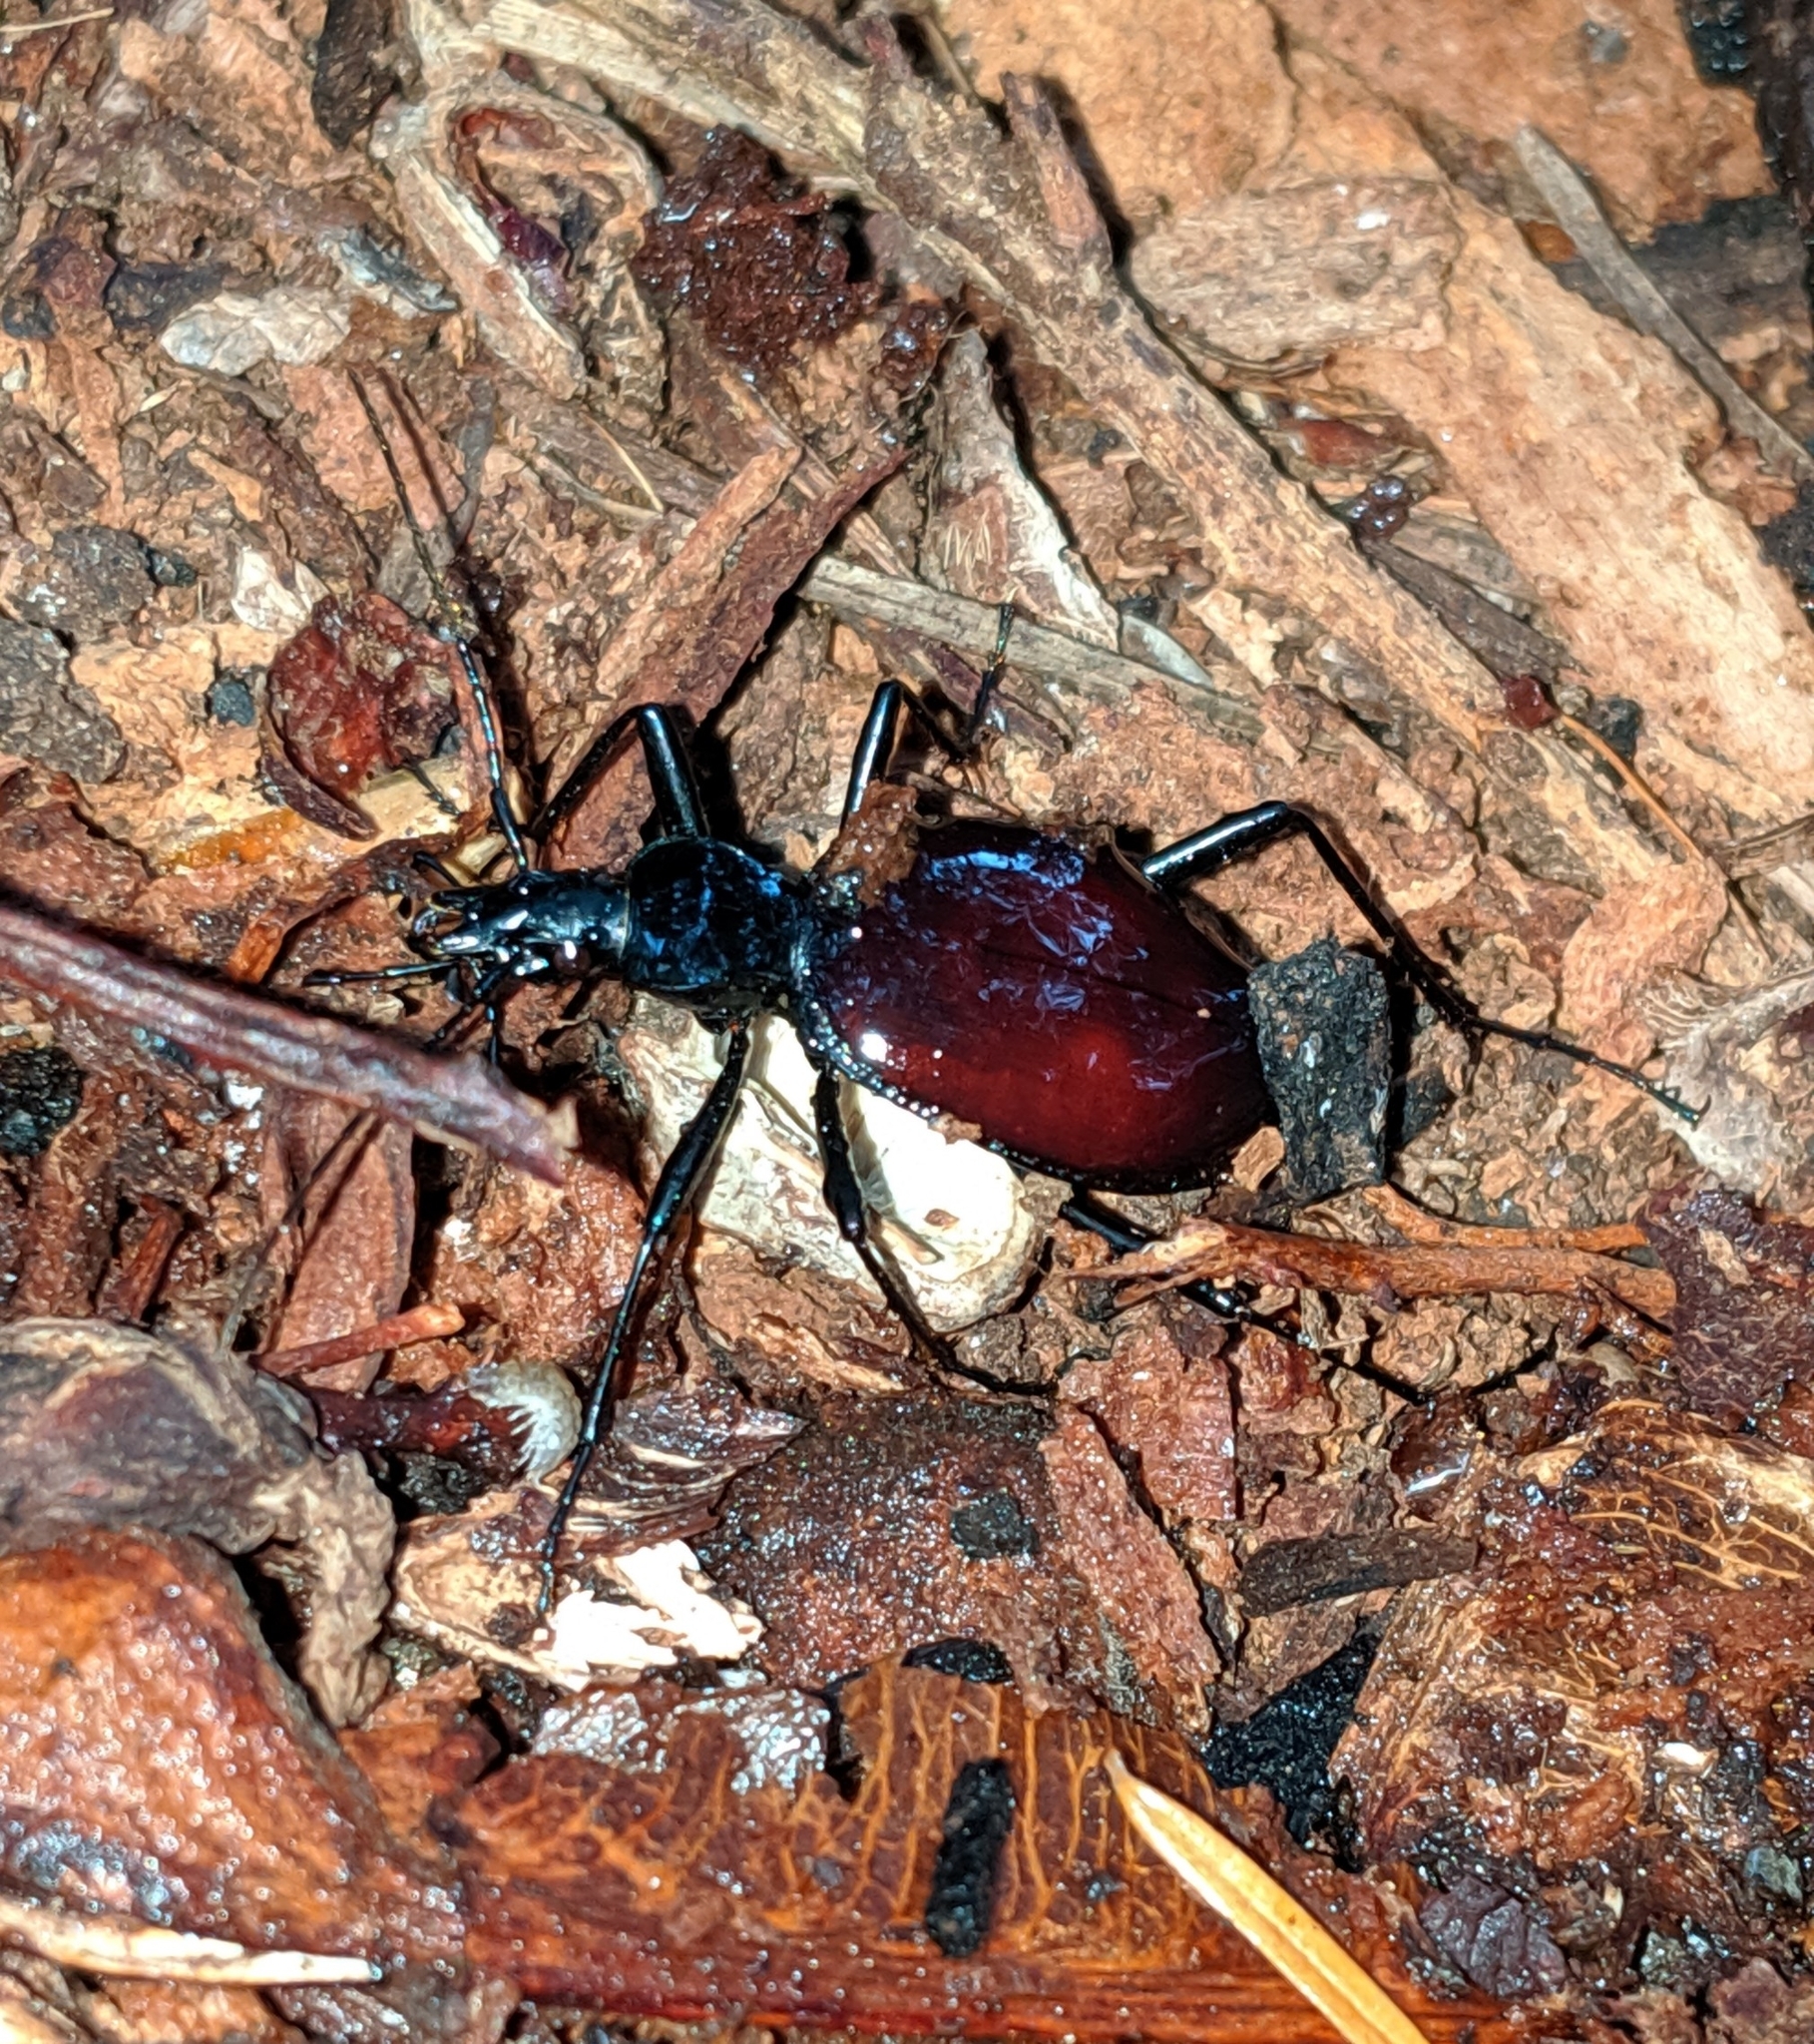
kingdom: Animalia
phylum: Arthropoda
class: Insecta
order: Coleoptera
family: Carabidae
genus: Scaphinotus
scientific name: Scaphinotus angusticollis
